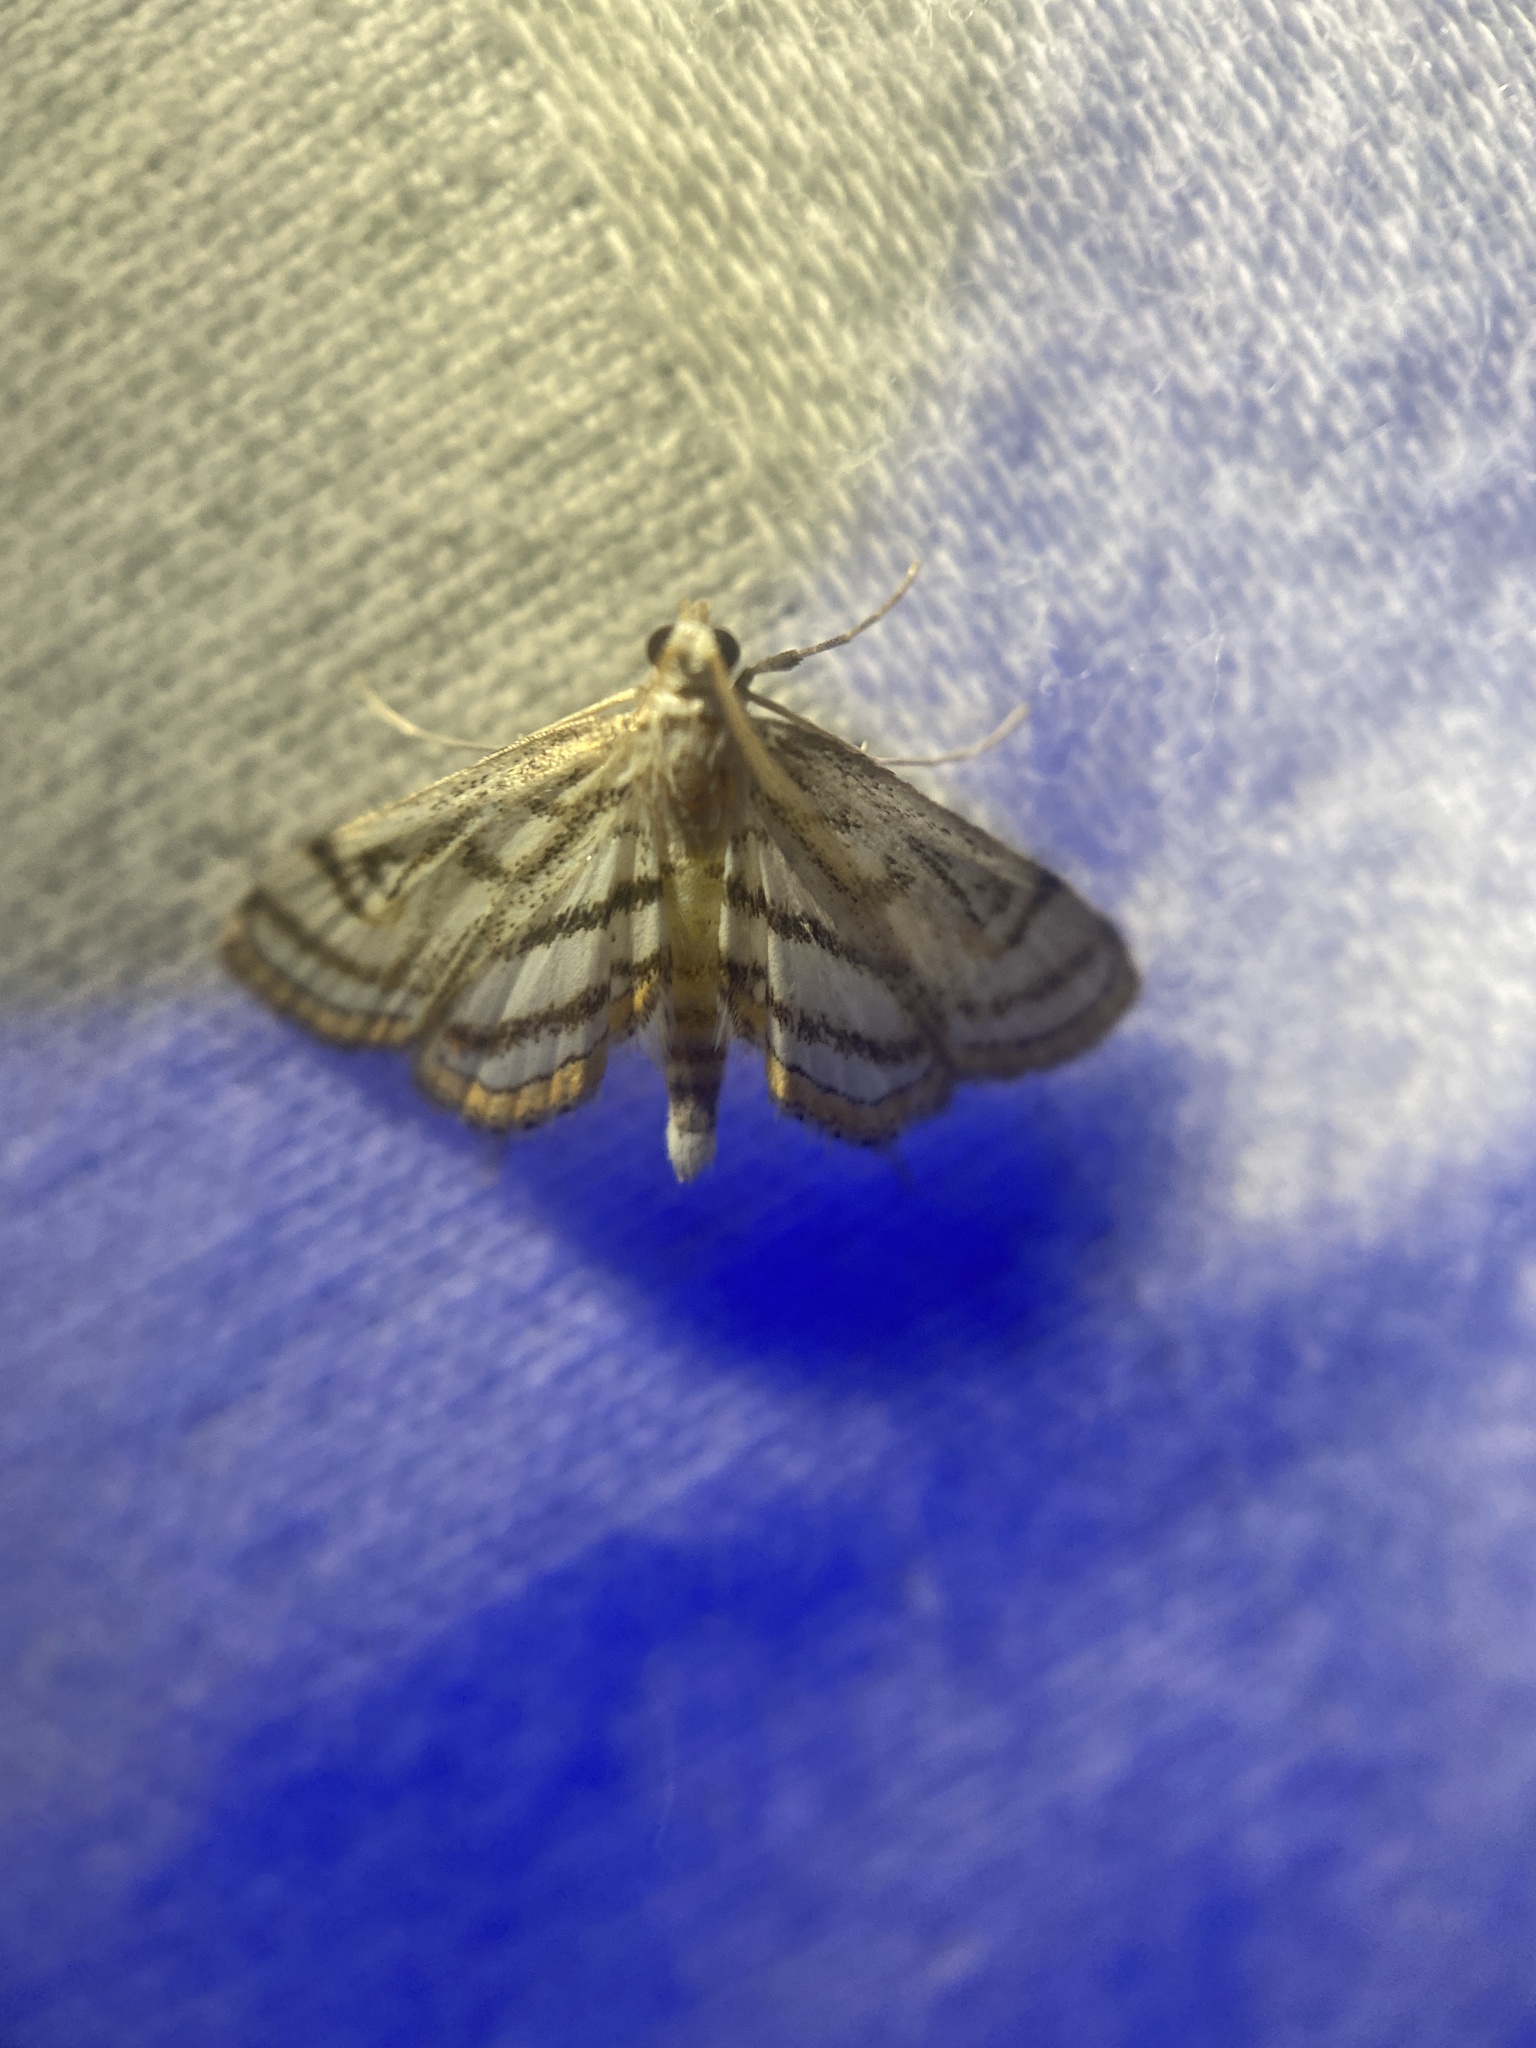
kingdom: Animalia
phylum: Arthropoda
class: Insecta
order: Lepidoptera
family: Crambidae
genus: Parapoynx
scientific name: Parapoynx badiusalis
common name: Chestnut-marked pondweed moth
